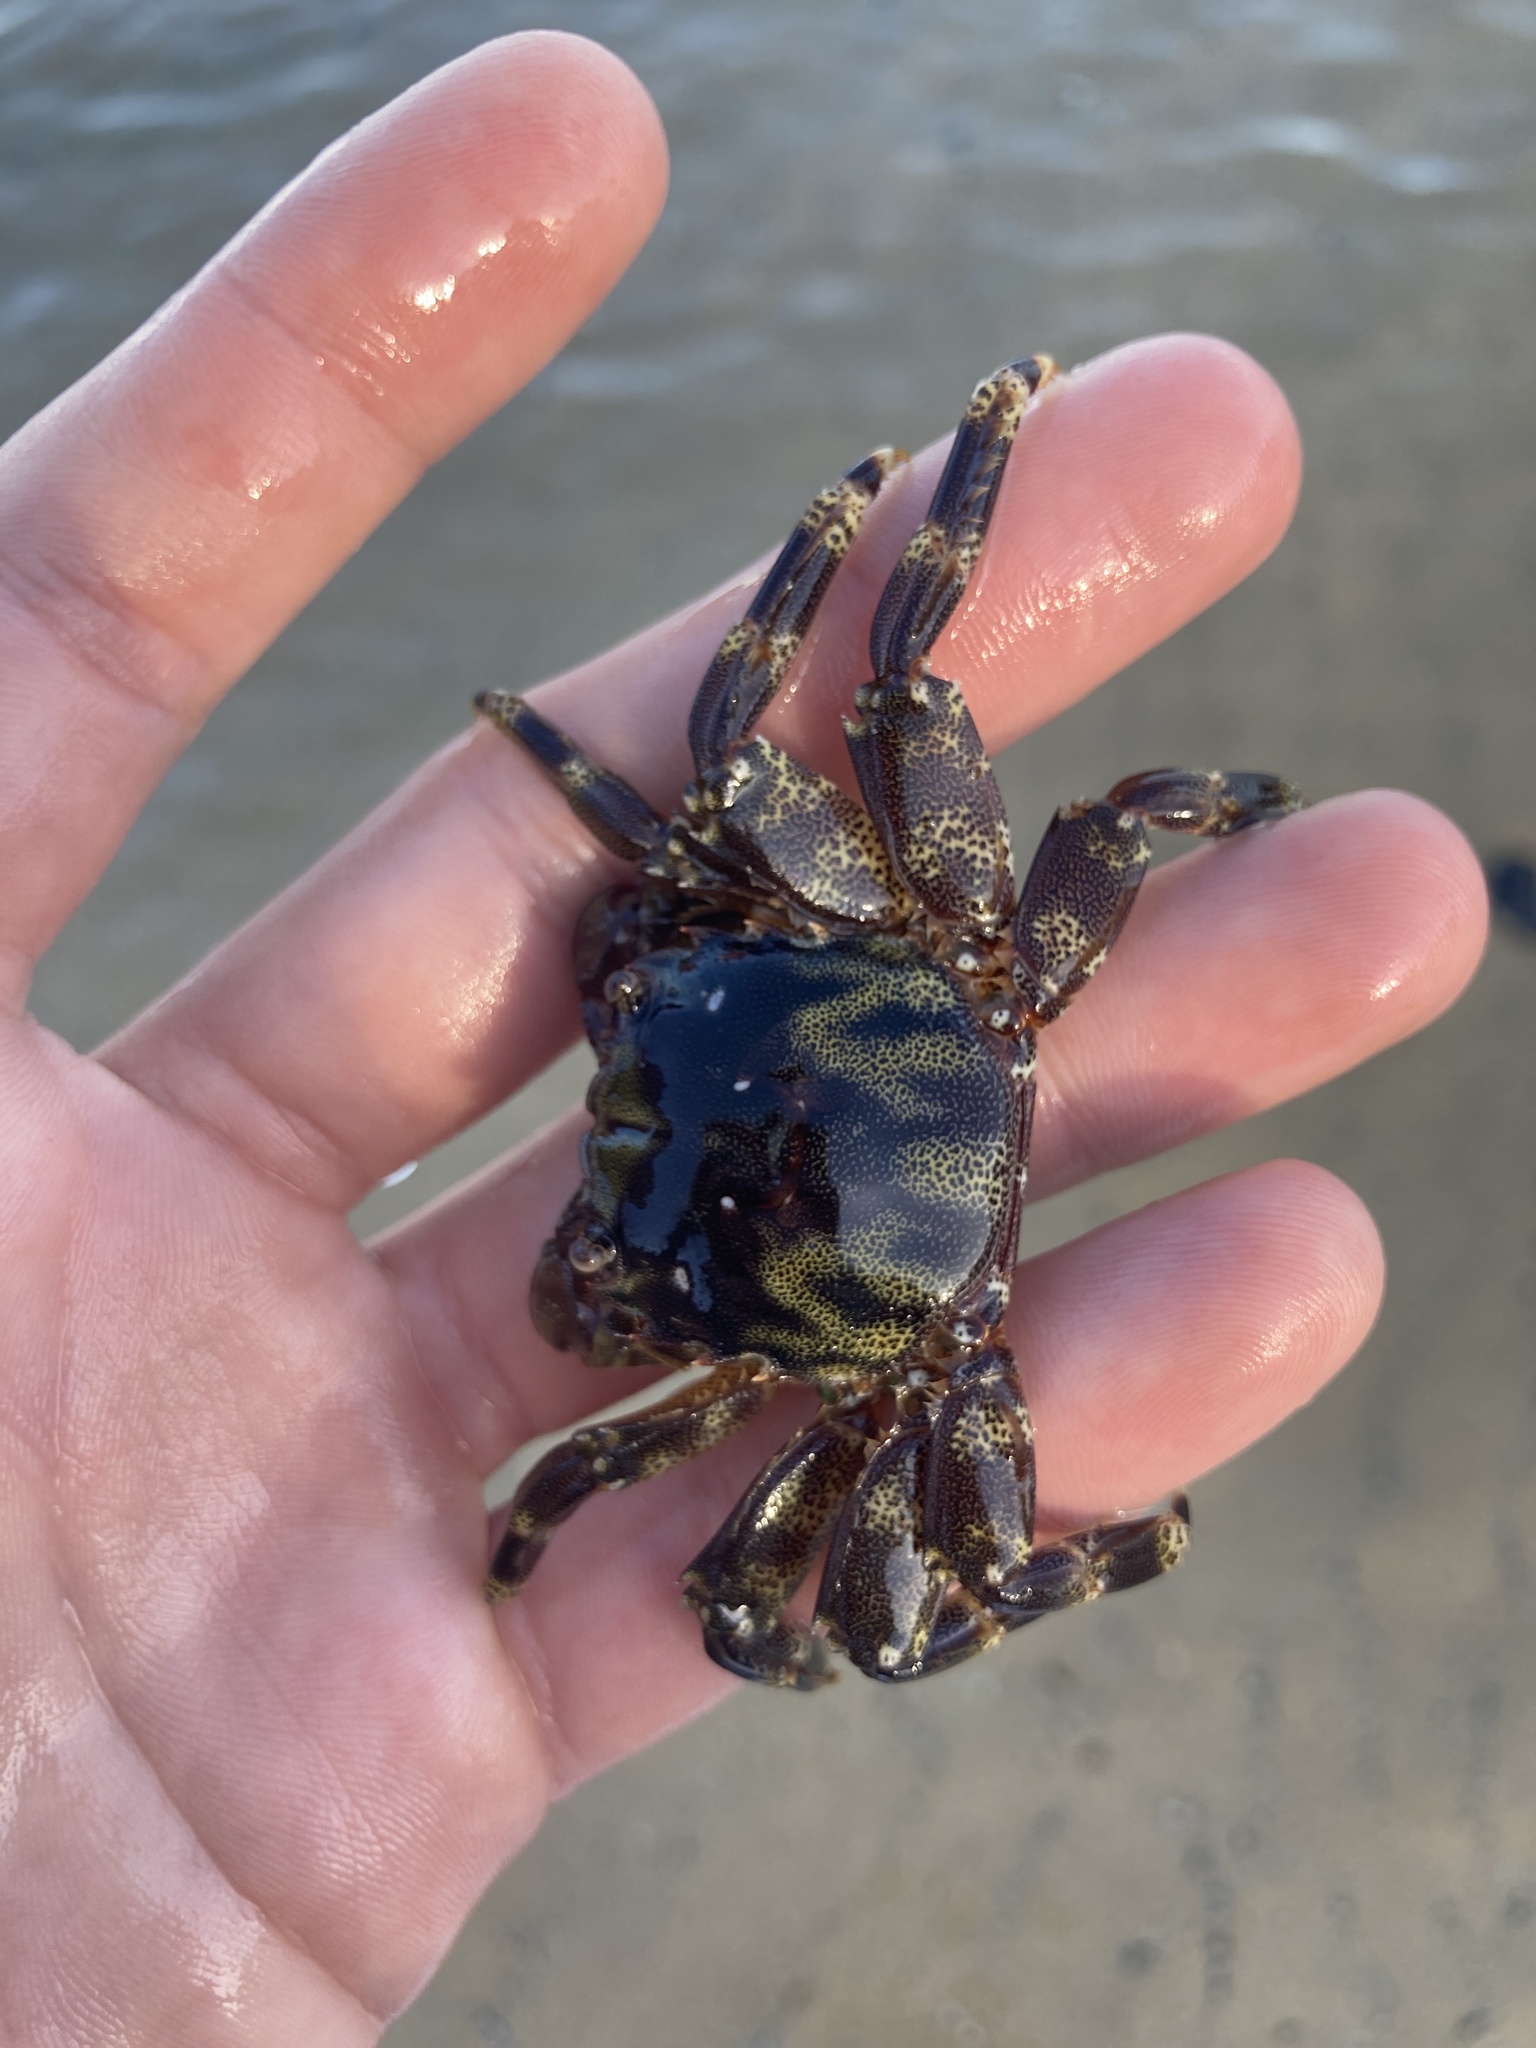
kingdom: Animalia
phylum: Arthropoda
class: Malacostraca
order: Decapoda
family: Plagusiidae
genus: Davusia
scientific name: Davusia glabra
